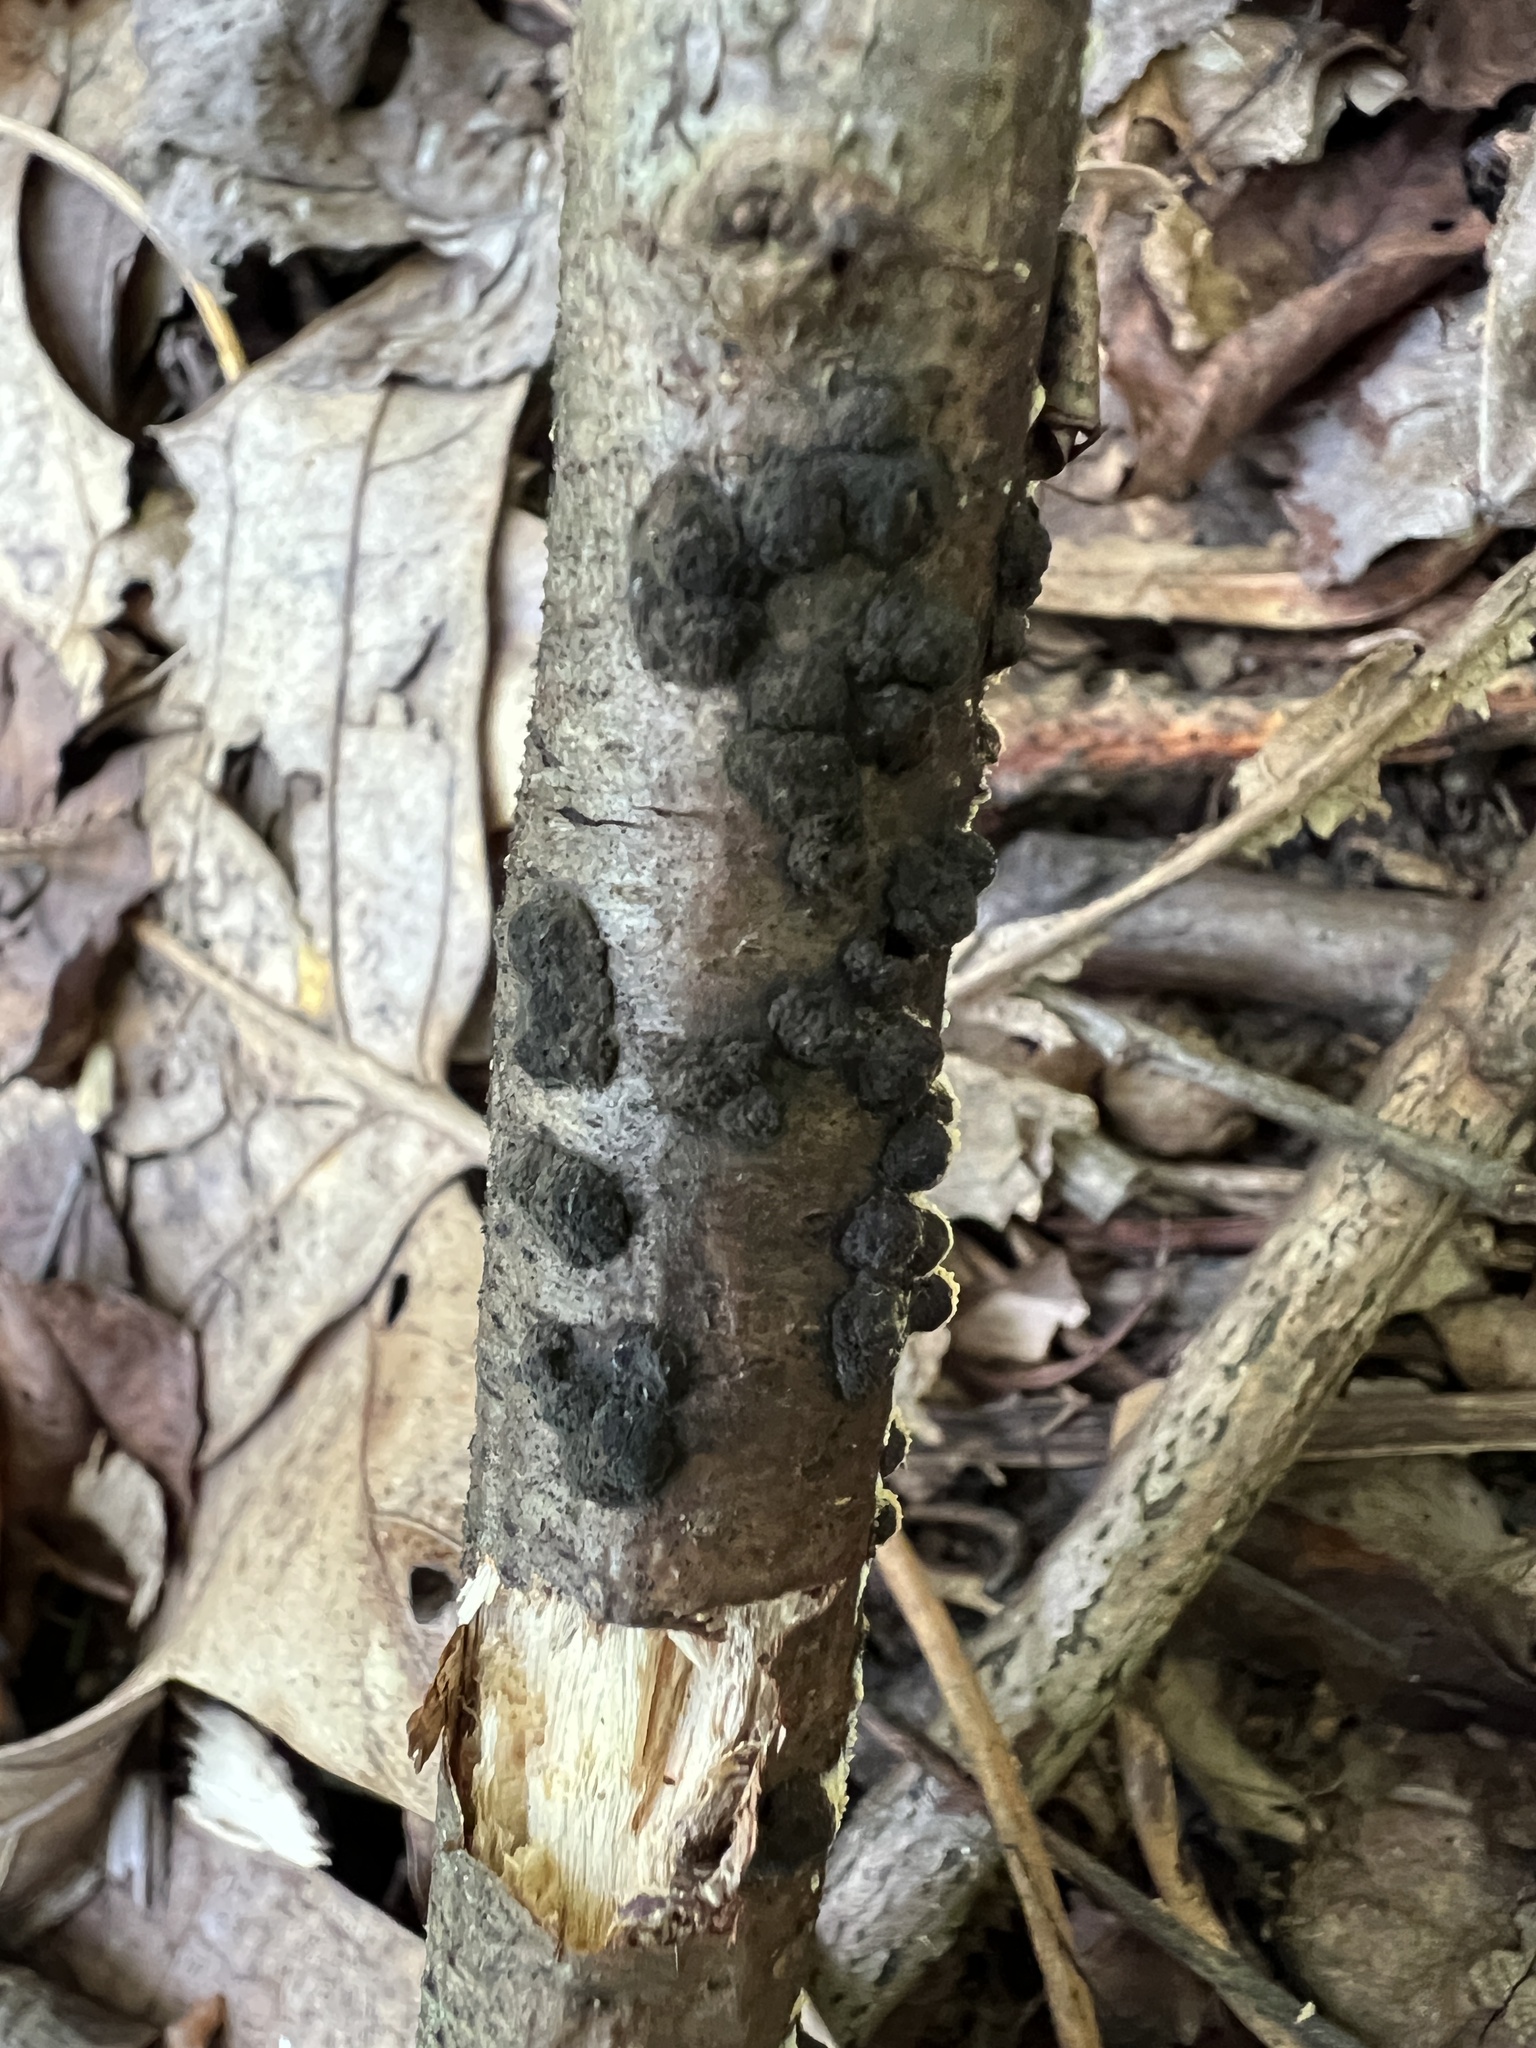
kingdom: Fungi
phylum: Ascomycota
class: Sordariomycetes
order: Xylariales
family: Hypoxylaceae
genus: Jackrogersella
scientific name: Jackrogersella cohaerens
